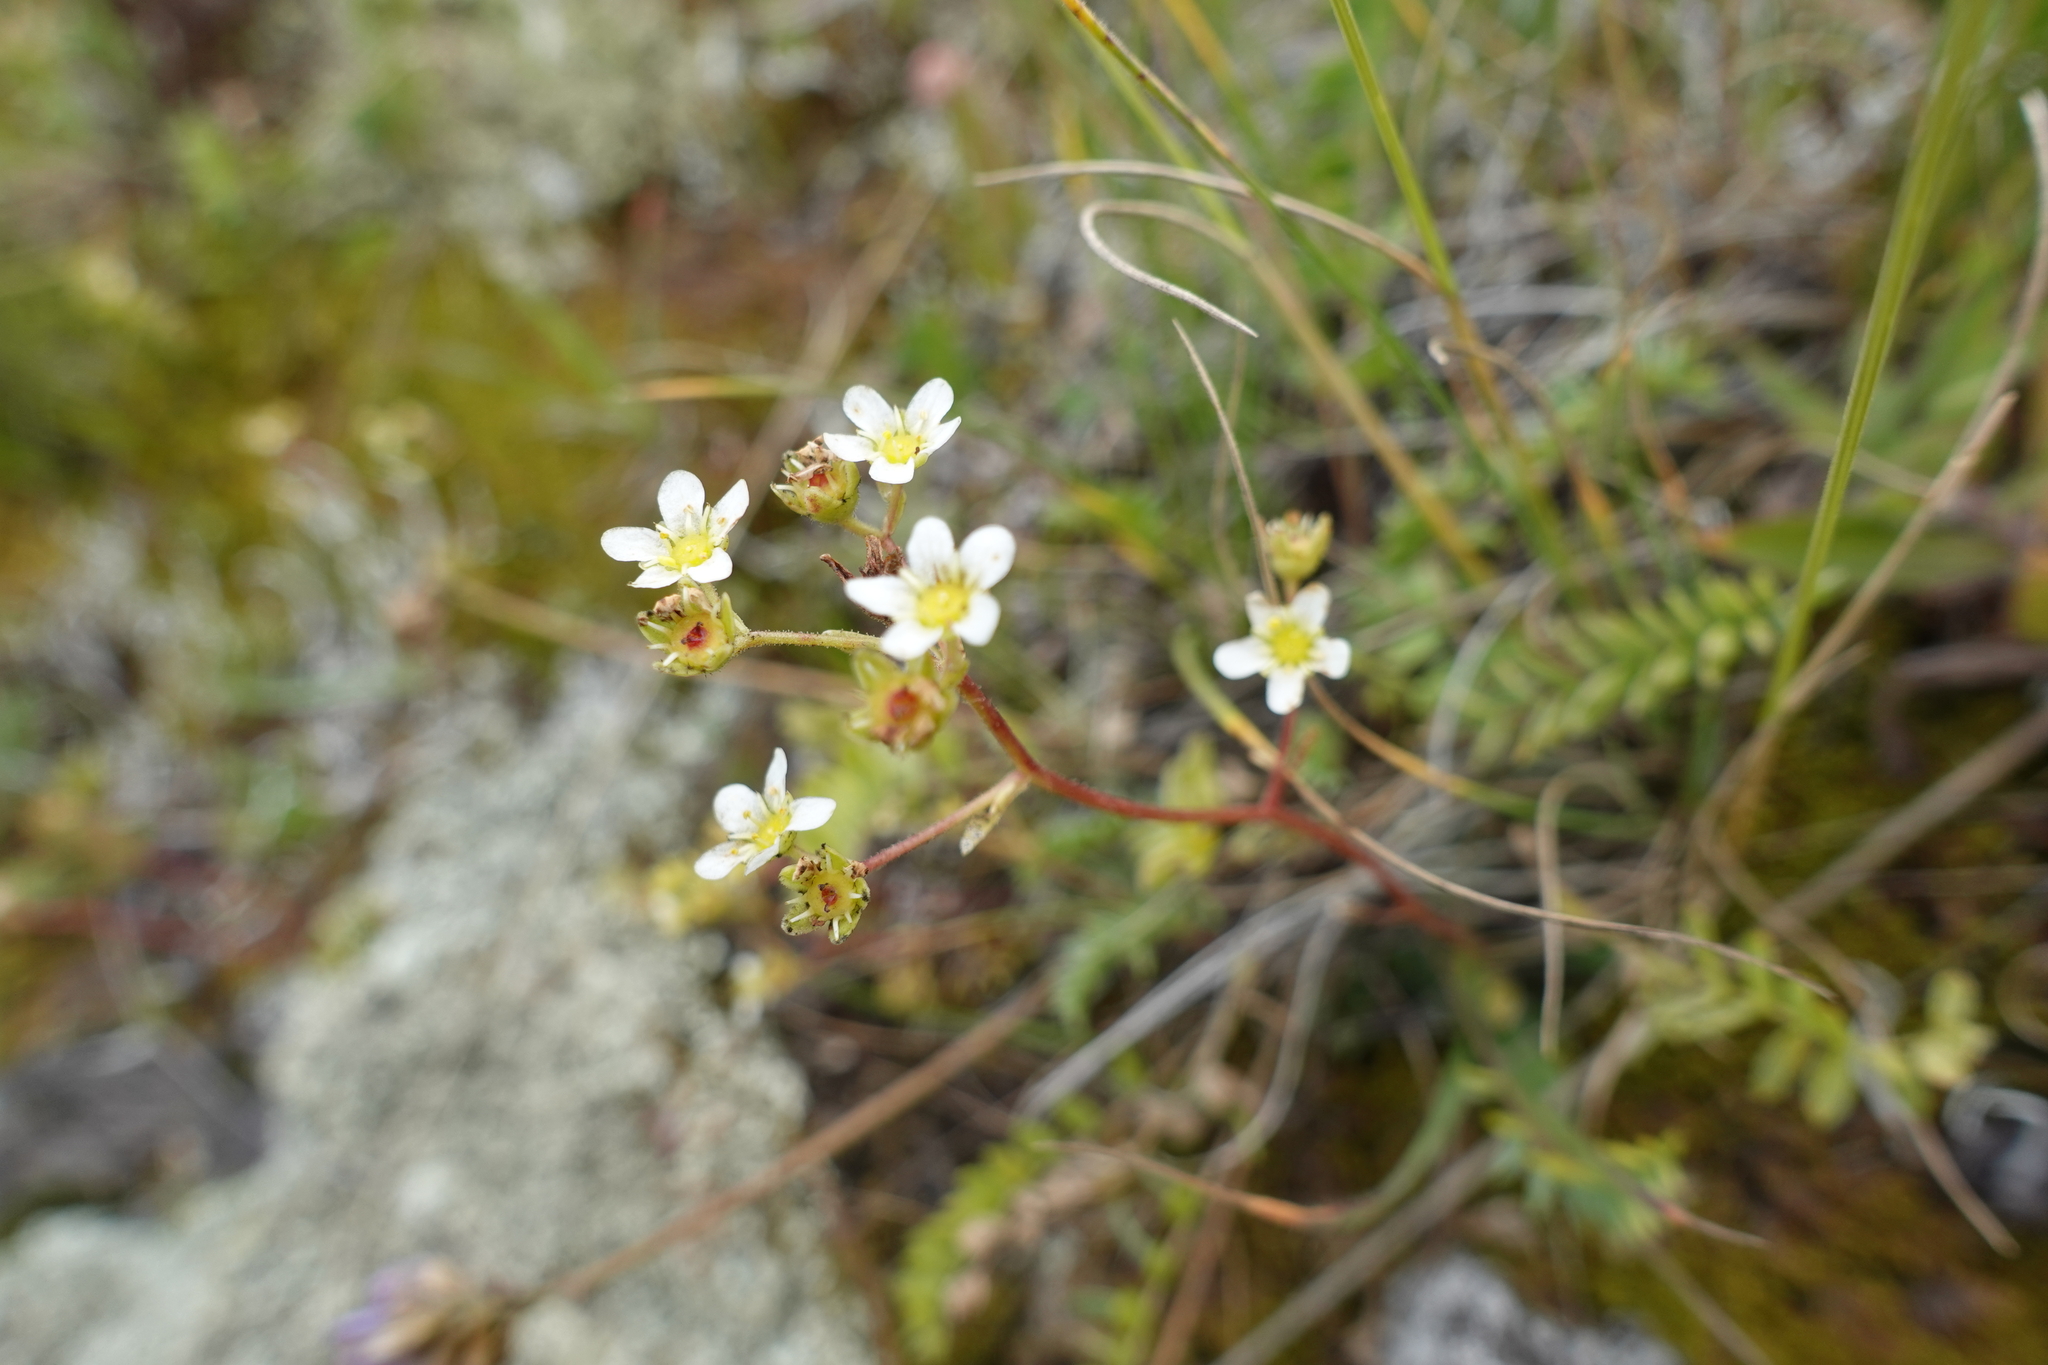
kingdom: Plantae
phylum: Tracheophyta
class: Magnoliopsida
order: Saxifragales
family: Saxifragaceae
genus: Saxifraga
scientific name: Saxifraga paniculata
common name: Livelong saxifrage
